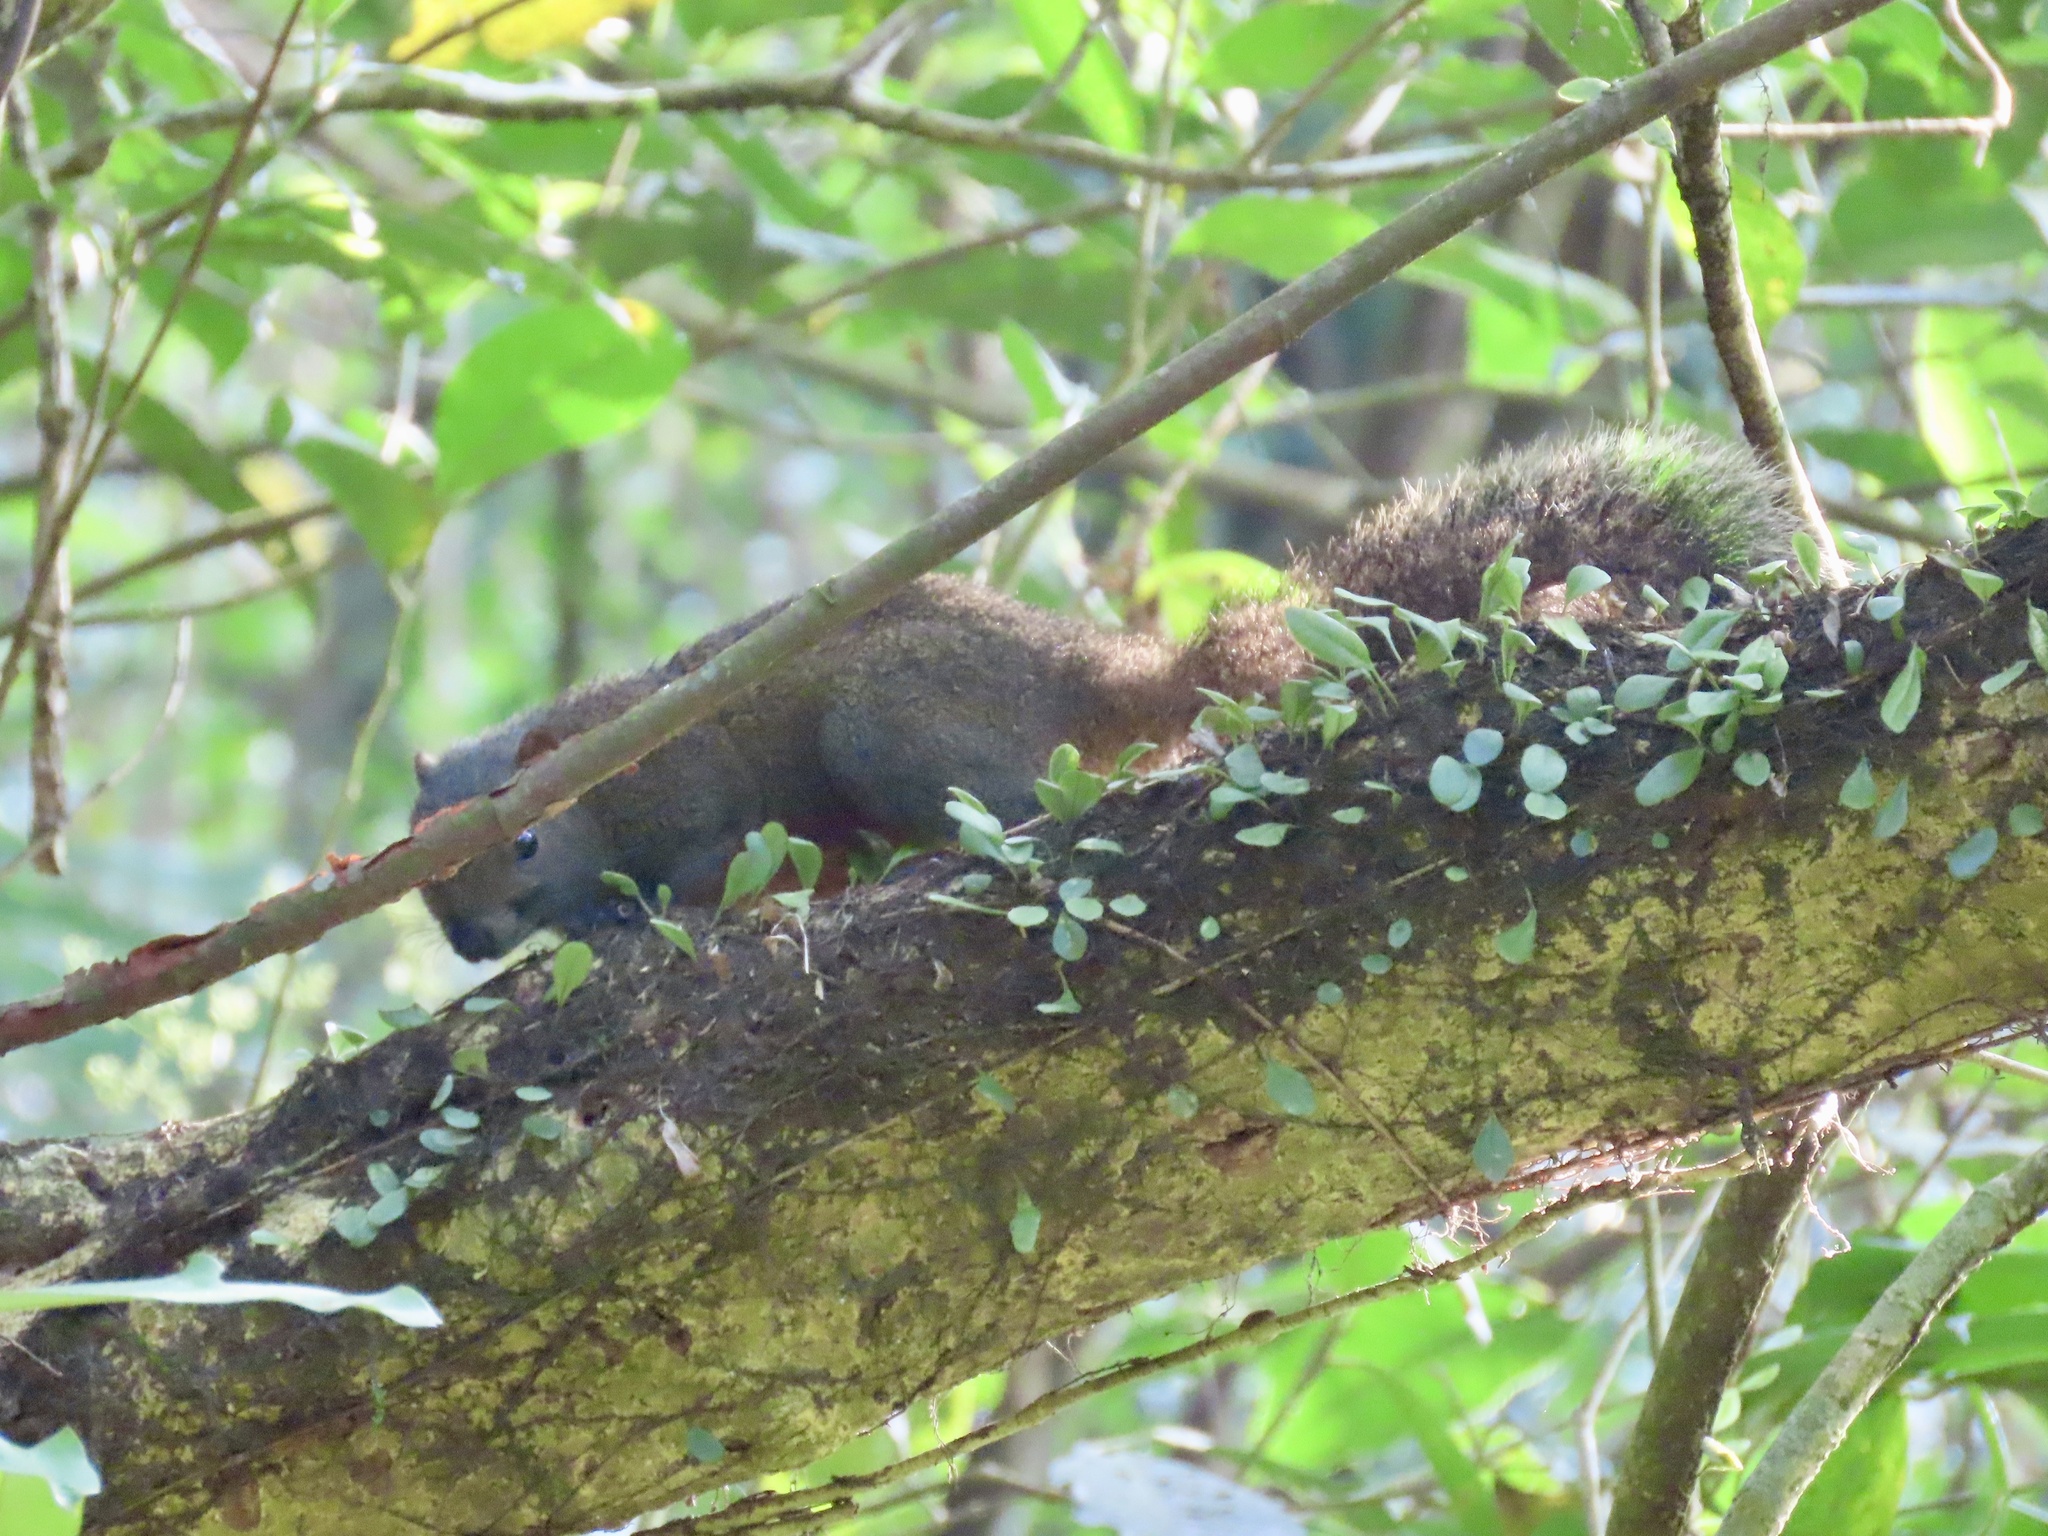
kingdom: Animalia
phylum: Chordata
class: Mammalia
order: Rodentia
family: Sciuridae
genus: Callosciurus
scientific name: Callosciurus erythraeus
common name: Pallas's squirrel
